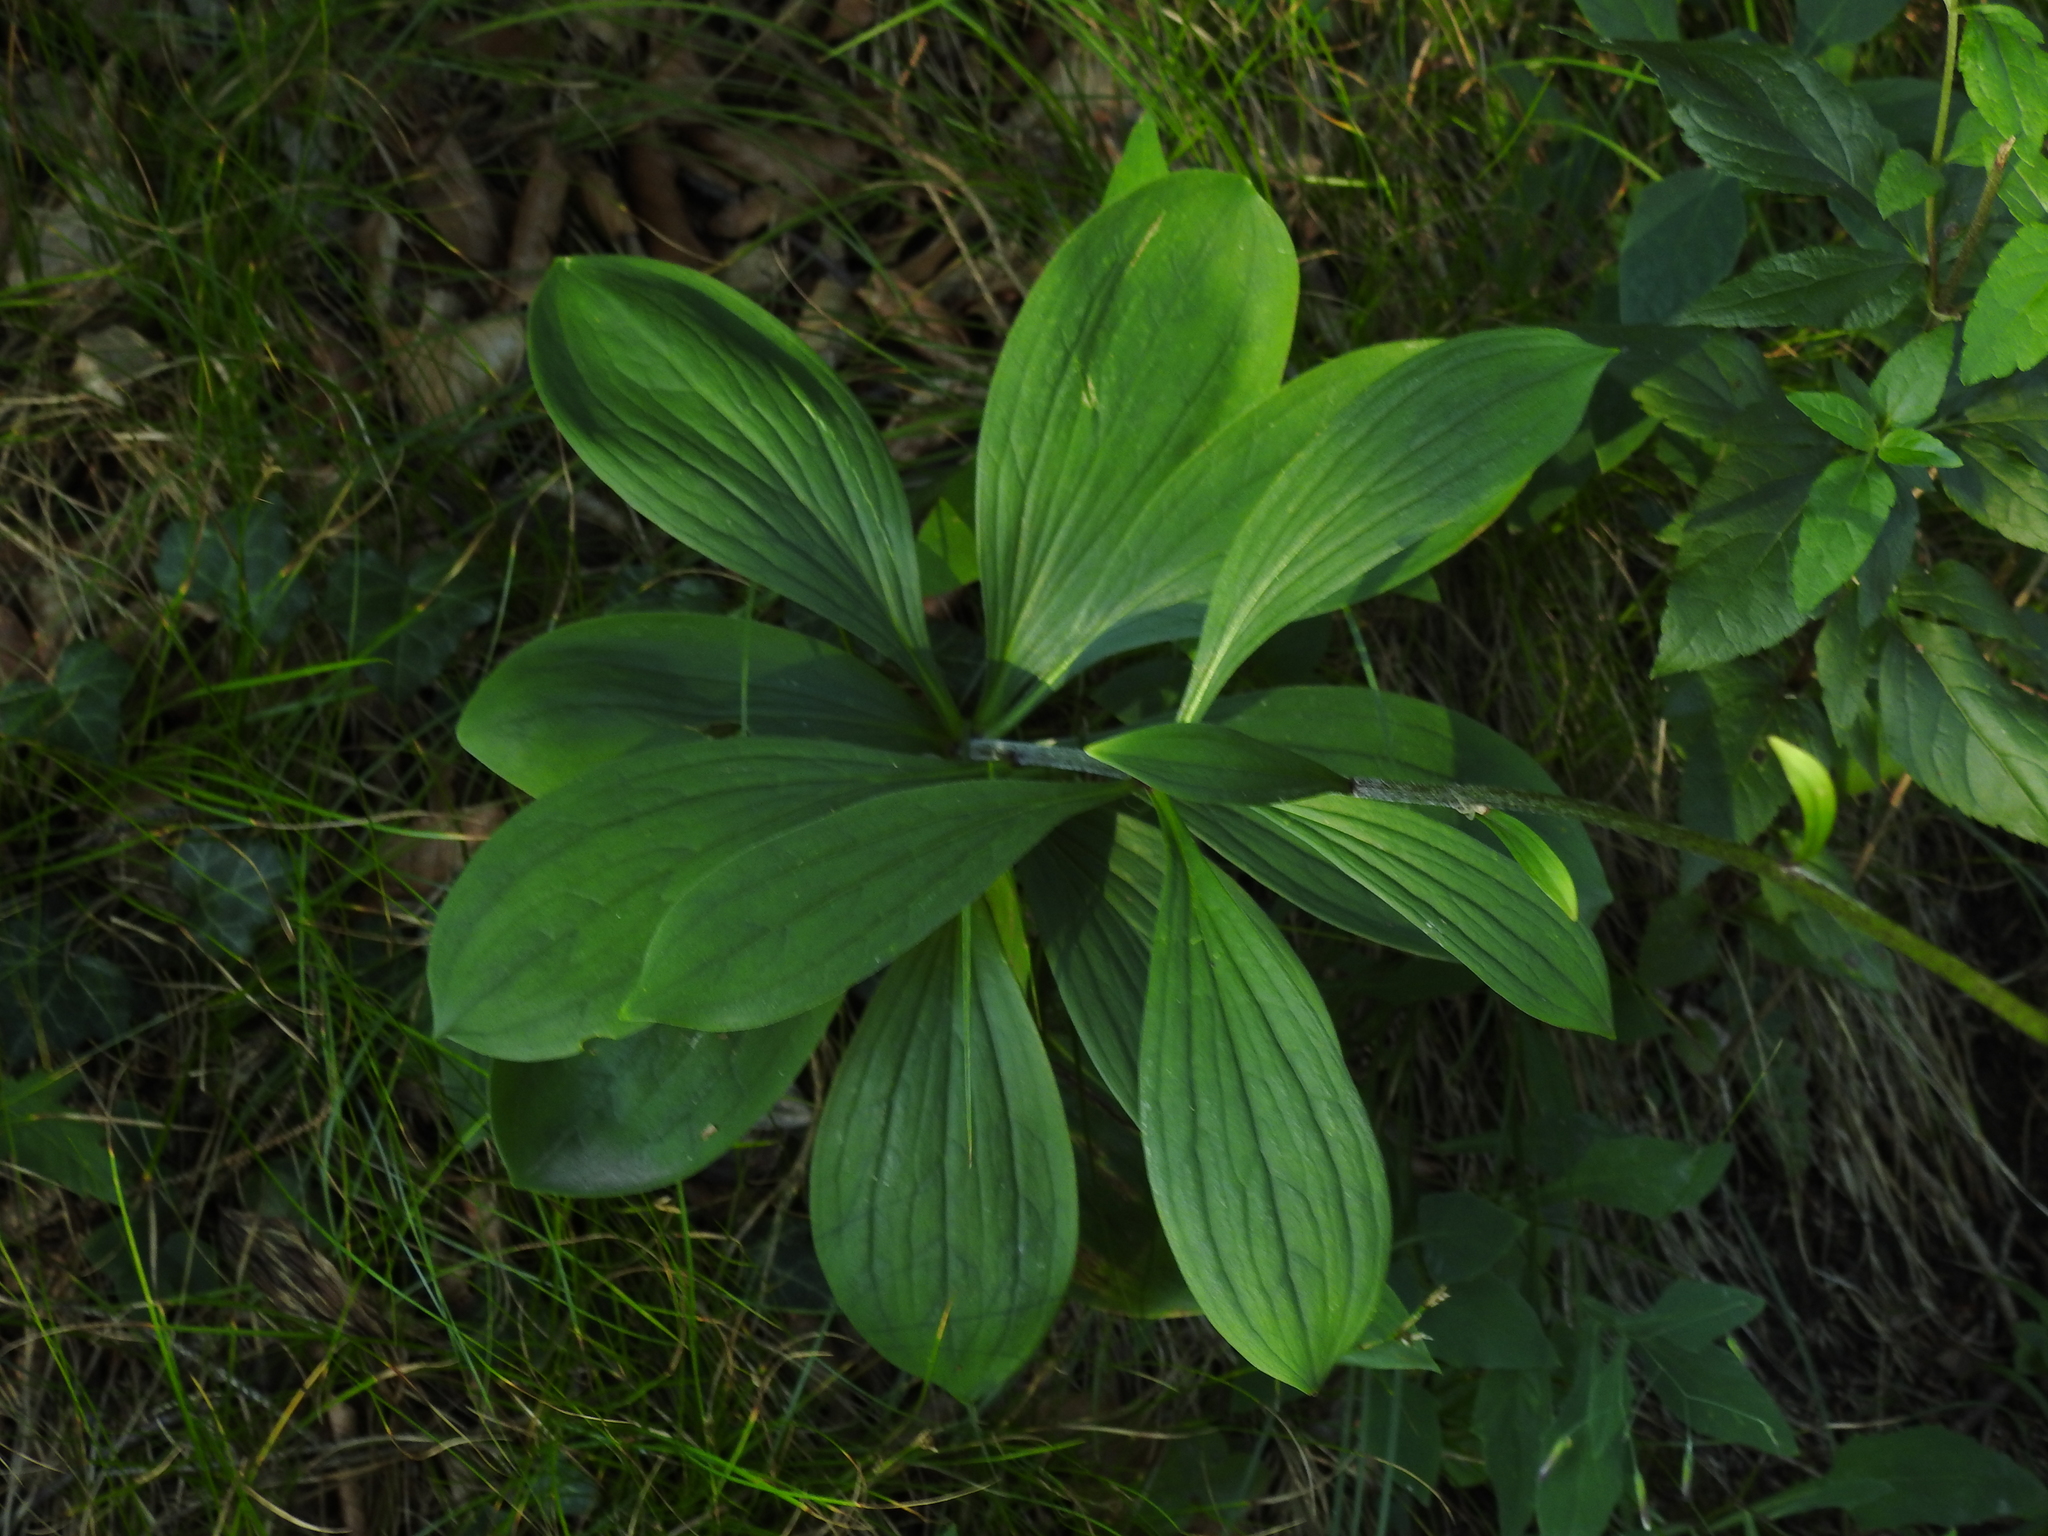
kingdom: Plantae
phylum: Tracheophyta
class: Liliopsida
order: Liliales
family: Liliaceae
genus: Lilium
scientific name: Lilium martagon
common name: Martagon lily
